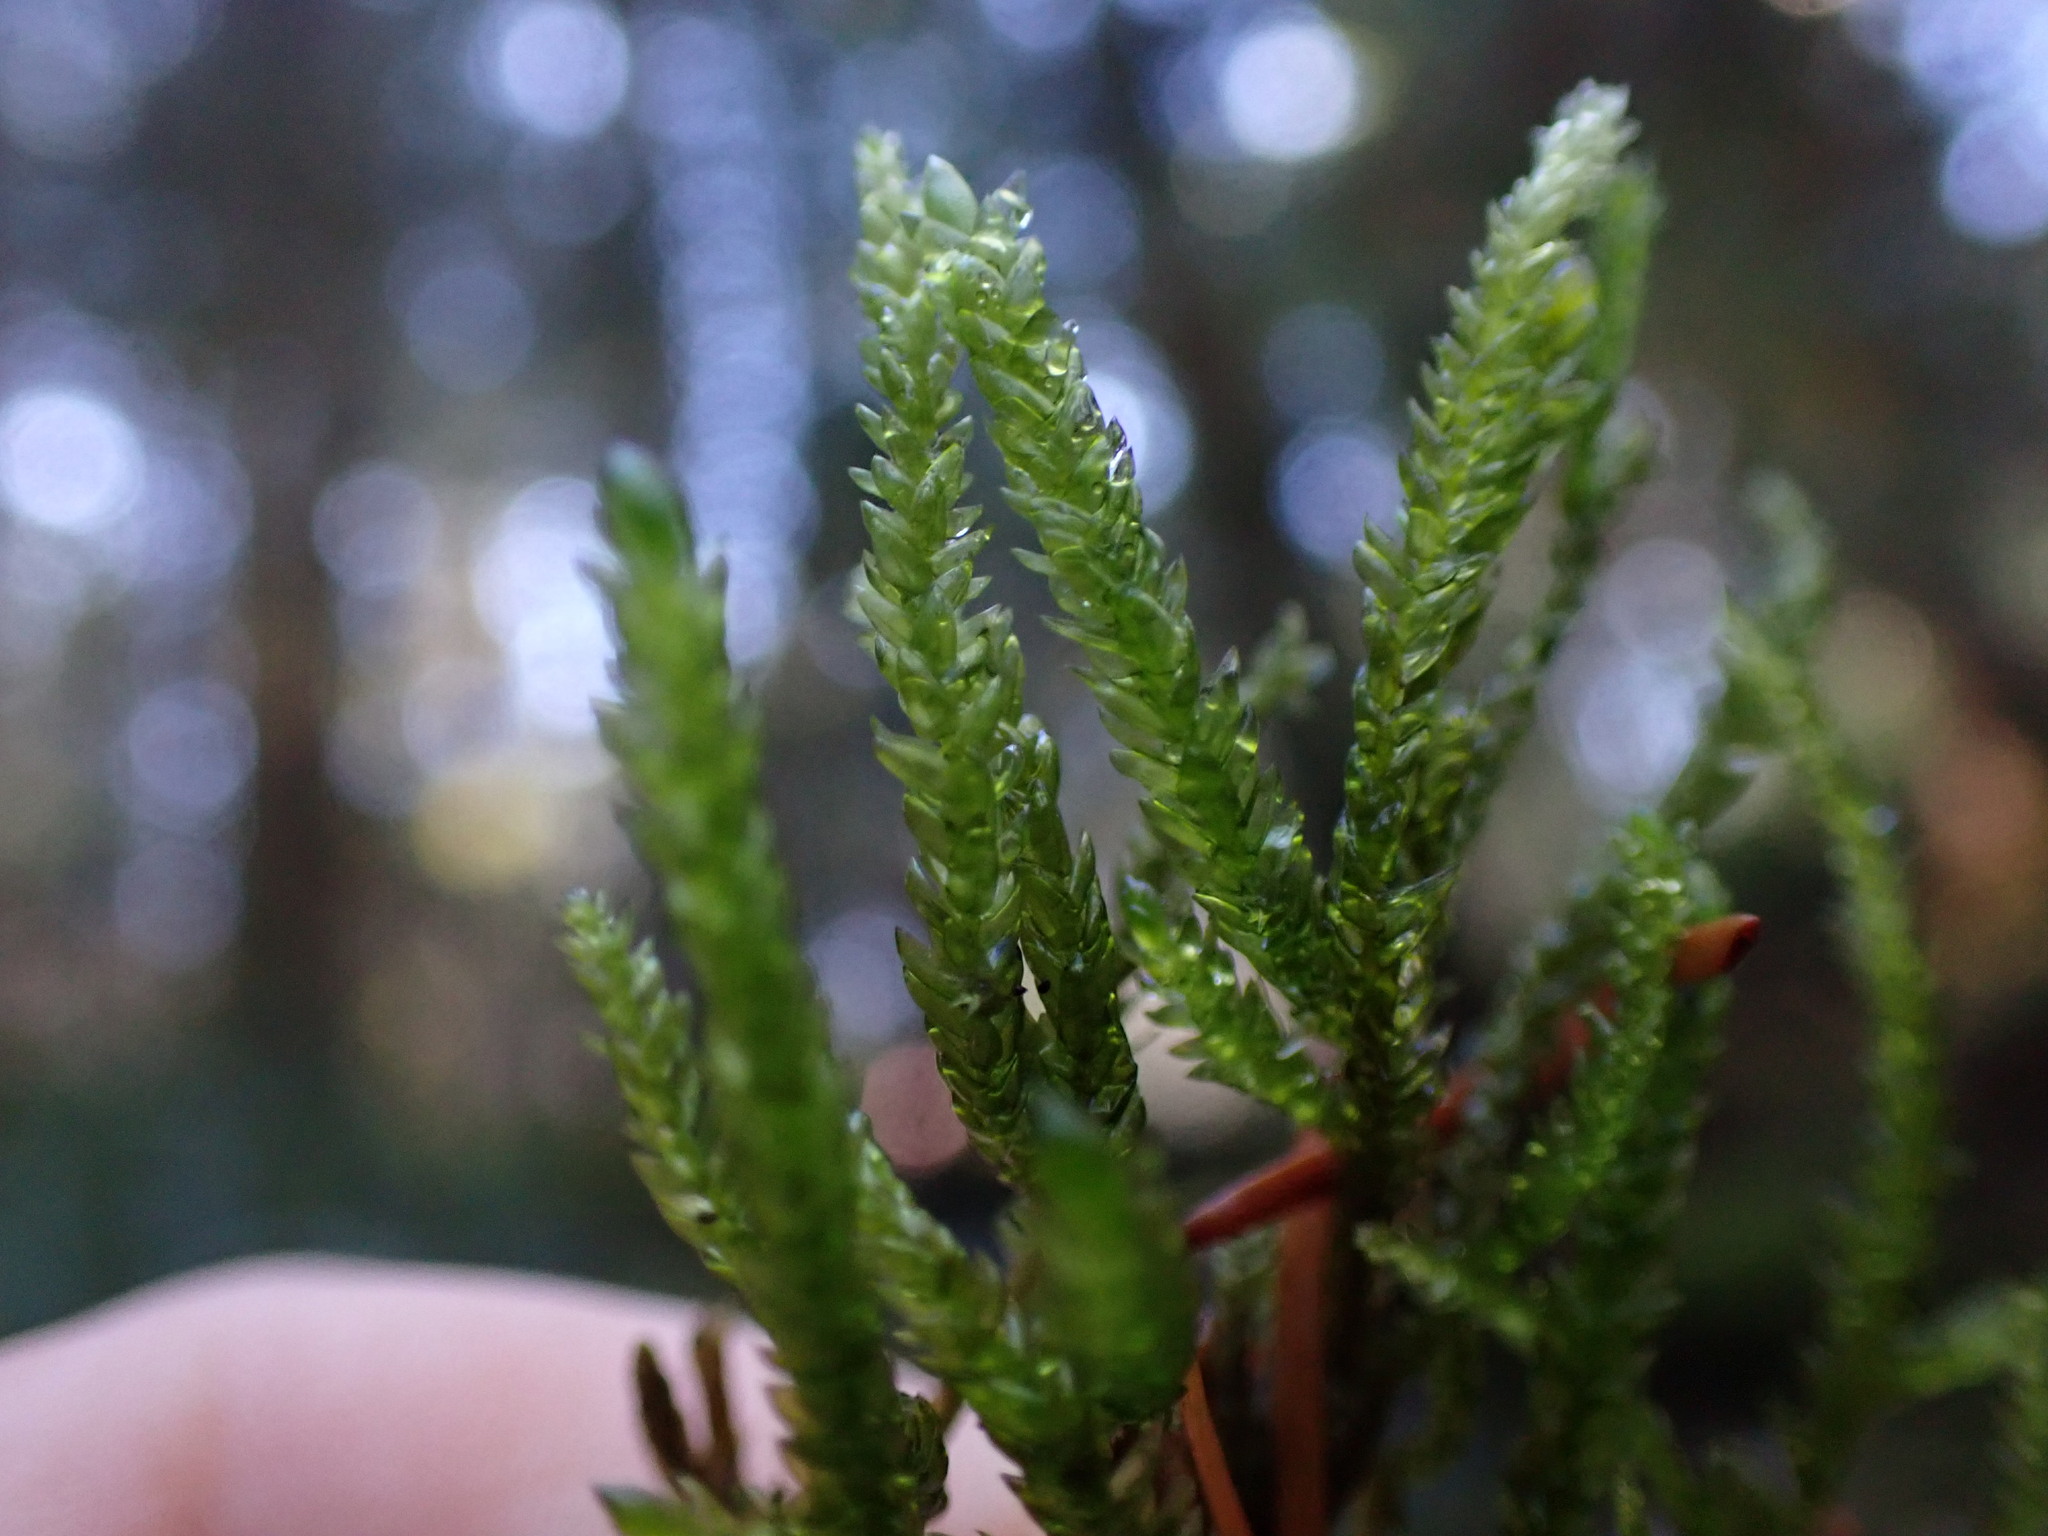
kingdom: Plantae
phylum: Bryophyta
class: Bryopsida
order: Hypnales
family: Brachytheciaceae
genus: Scleropodium
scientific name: Scleropodium obtusifolium
